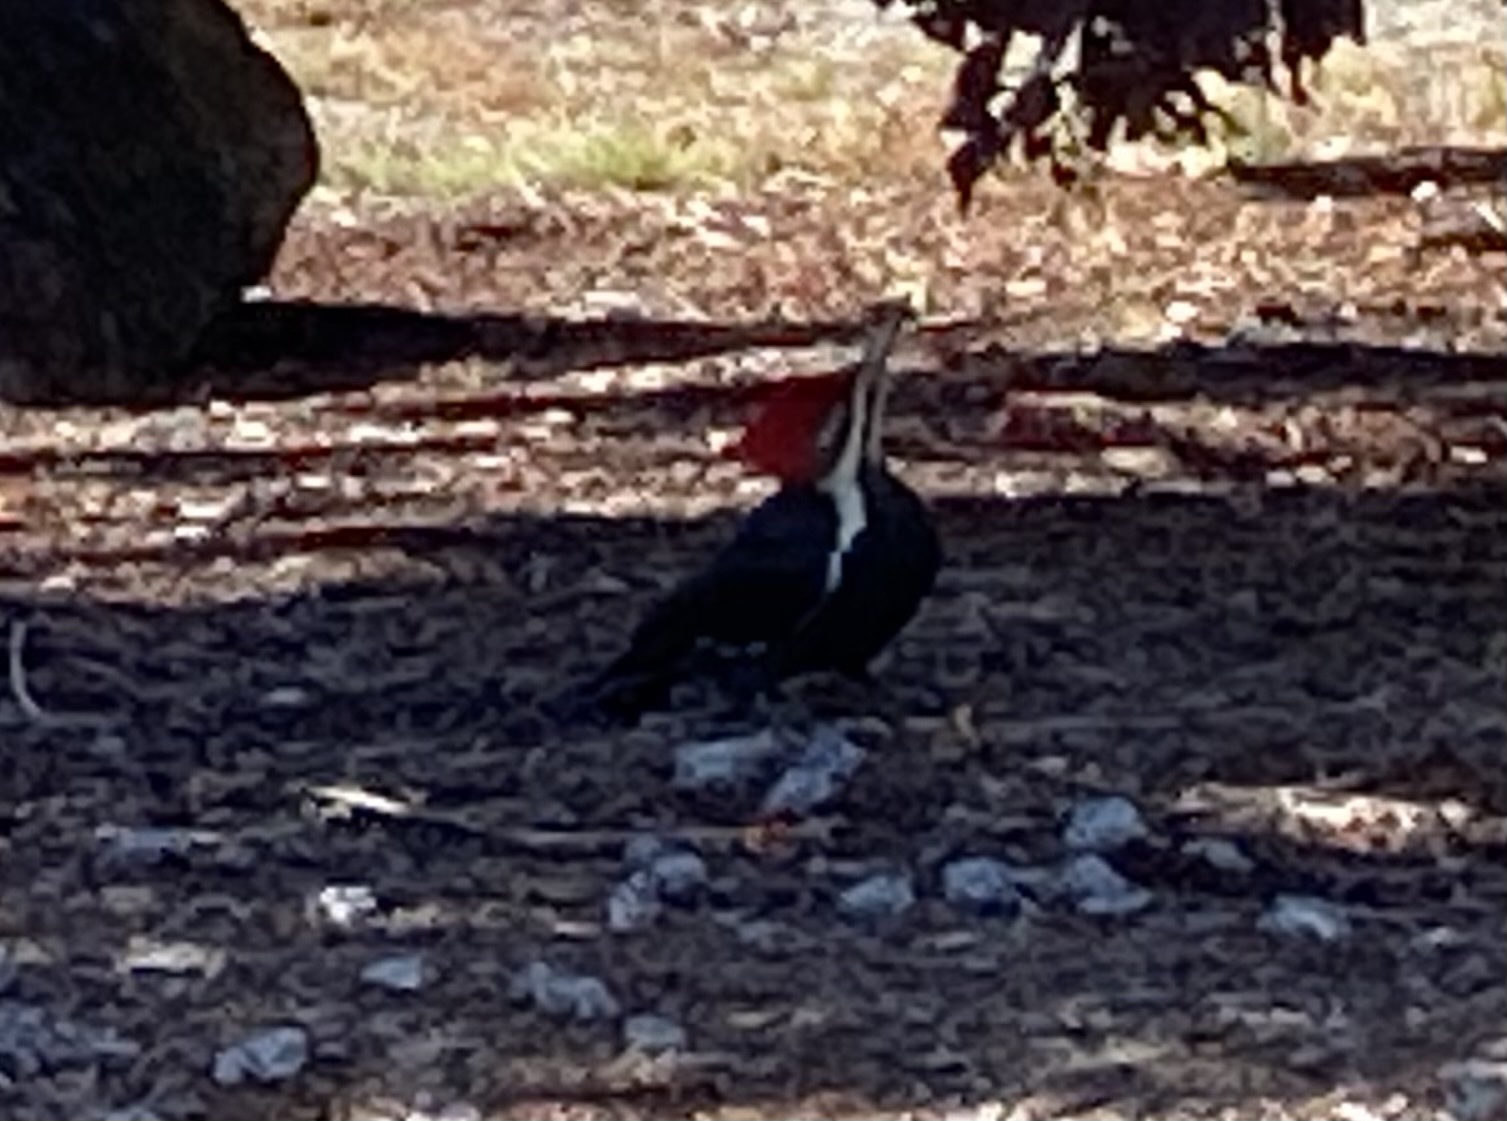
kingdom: Animalia
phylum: Chordata
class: Aves
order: Piciformes
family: Picidae
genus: Dryocopus
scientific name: Dryocopus pileatus
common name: Pileated woodpecker
